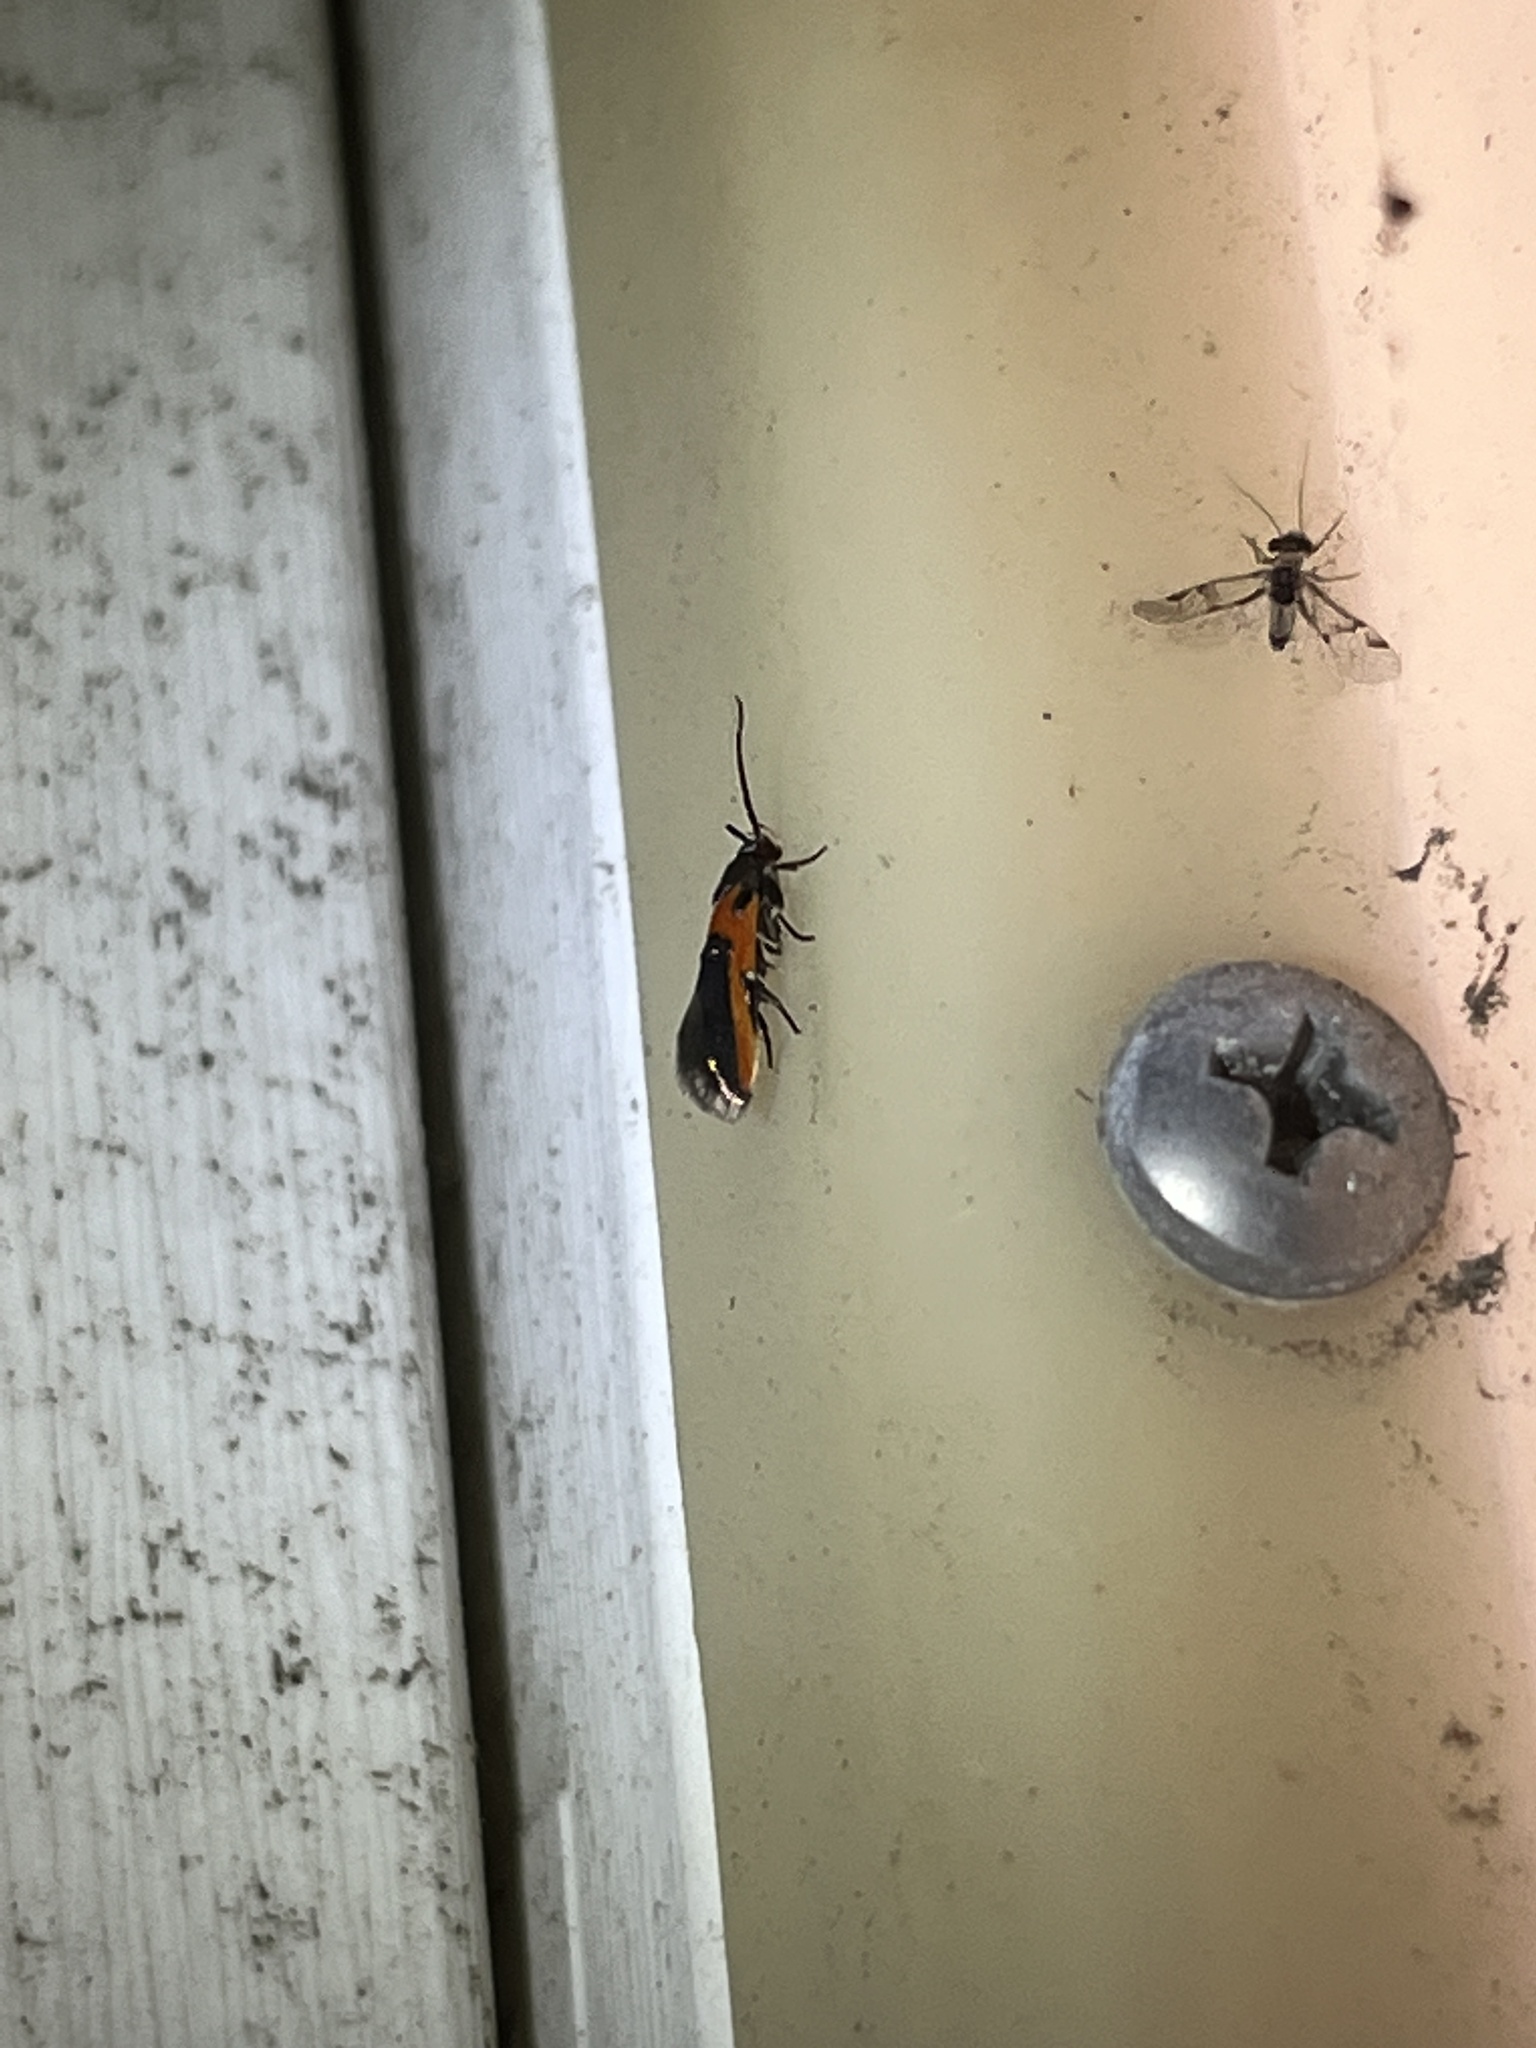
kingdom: Animalia
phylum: Arthropoda
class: Insecta
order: Lepidoptera
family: Cosmopterigidae
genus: Euclemensia
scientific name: Euclemensia bassettella
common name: Kermes scale moth
